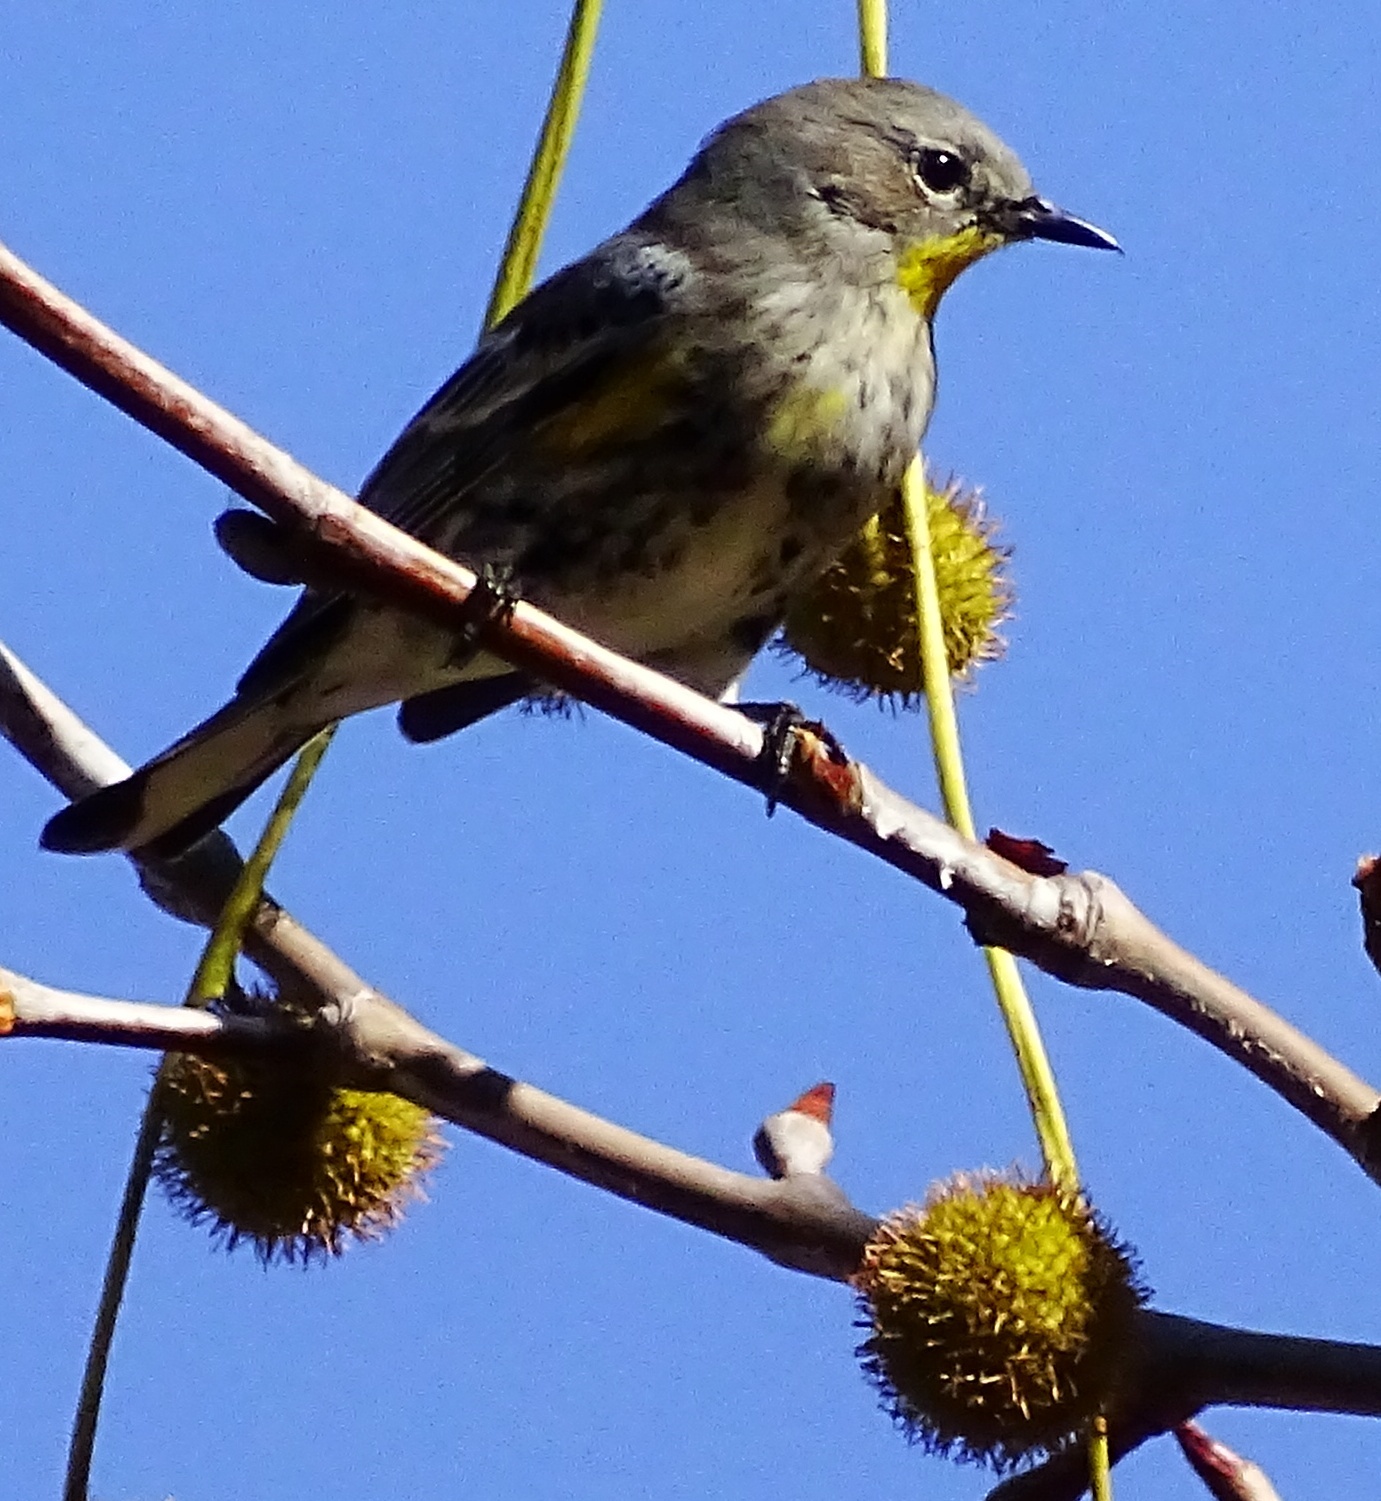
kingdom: Animalia
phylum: Chordata
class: Aves
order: Passeriformes
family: Parulidae
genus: Setophaga
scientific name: Setophaga auduboni
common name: Audubon's warbler
